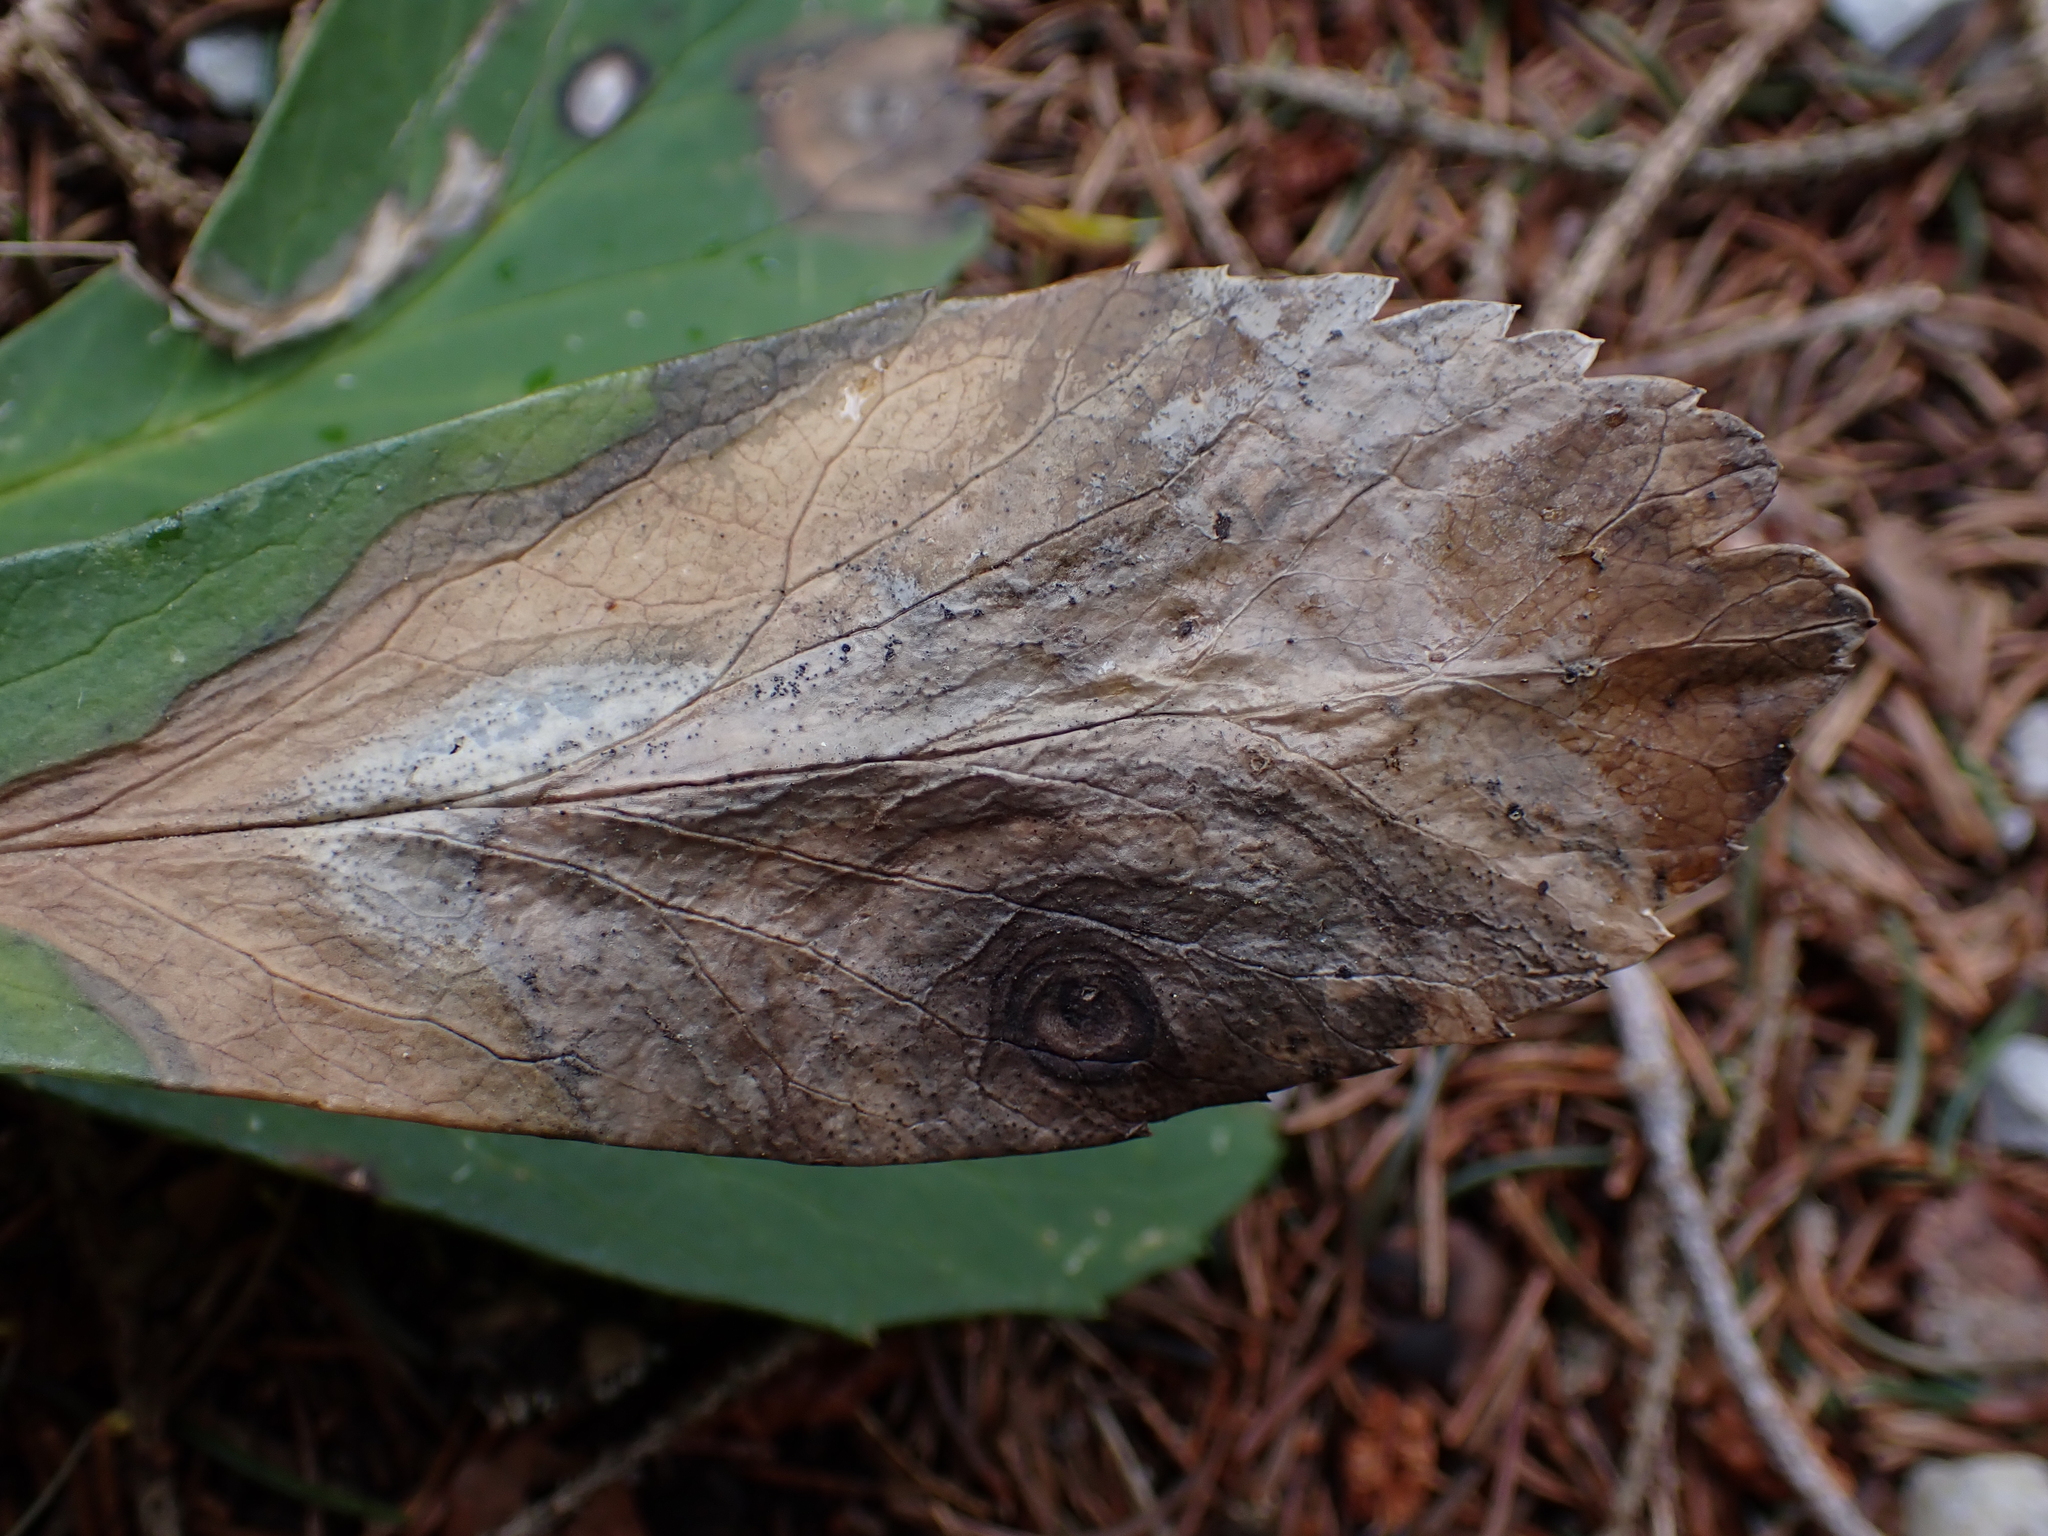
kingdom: Fungi
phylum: Ascomycota
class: Dothideomycetes
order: Pleosporales
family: Didymellaceae
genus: Microsphaeropsis
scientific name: Microsphaeropsis hellebori
